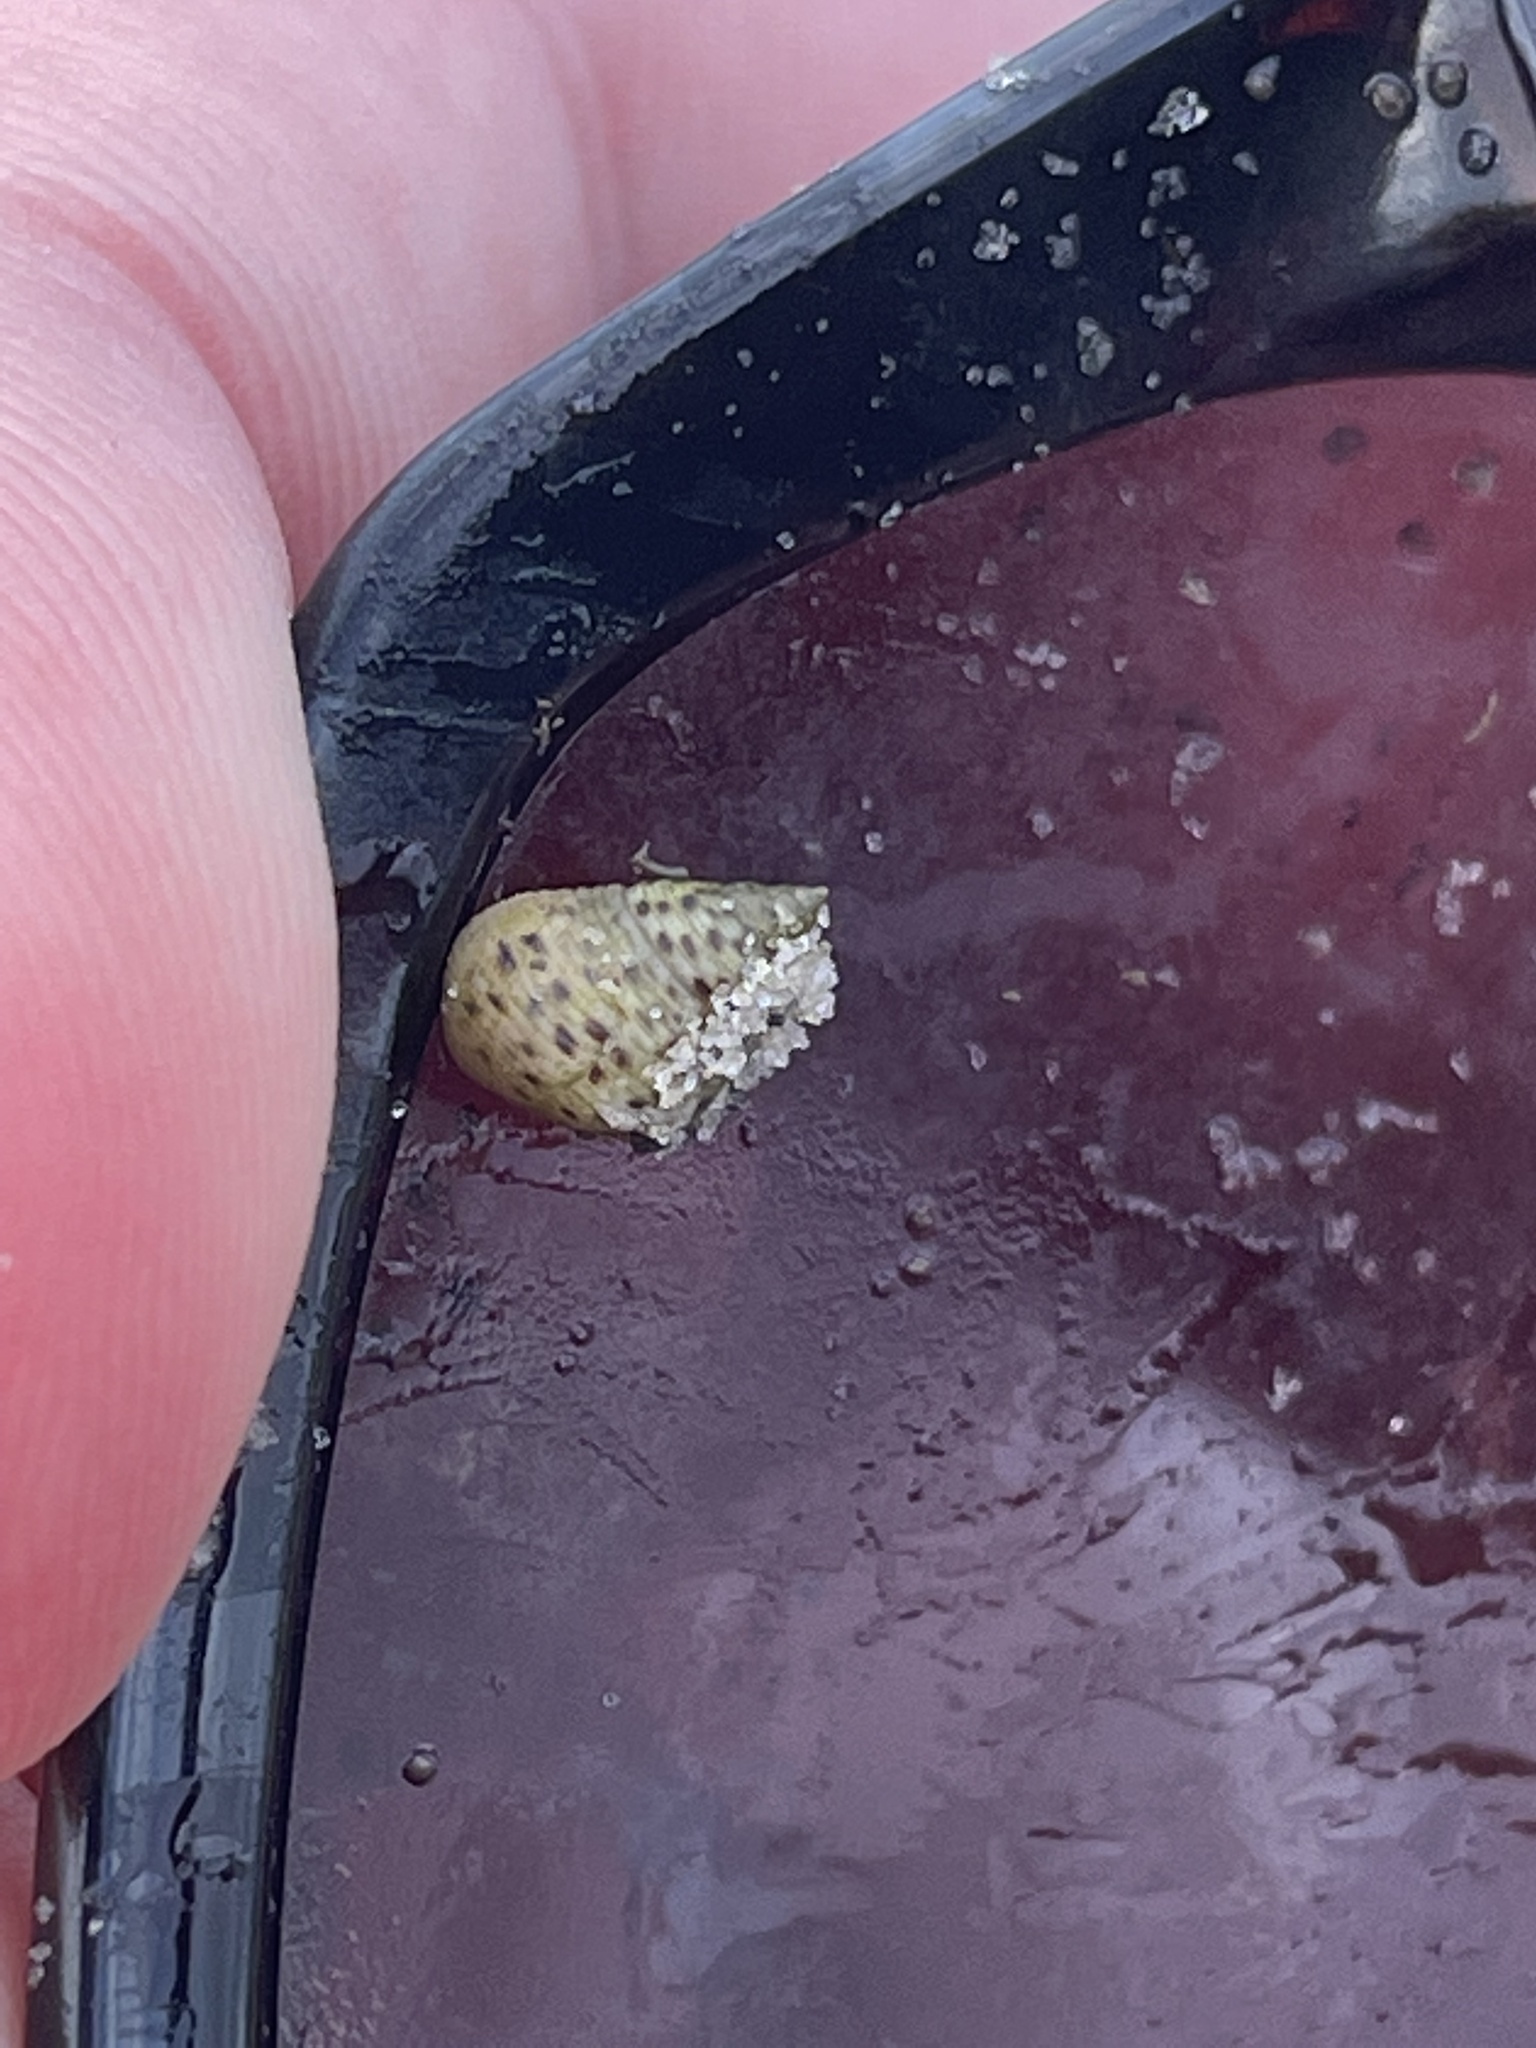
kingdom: Animalia
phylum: Mollusca
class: Gastropoda
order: Littorinimorpha
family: Littorinidae
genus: Littoraria
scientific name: Littoraria irrorata
